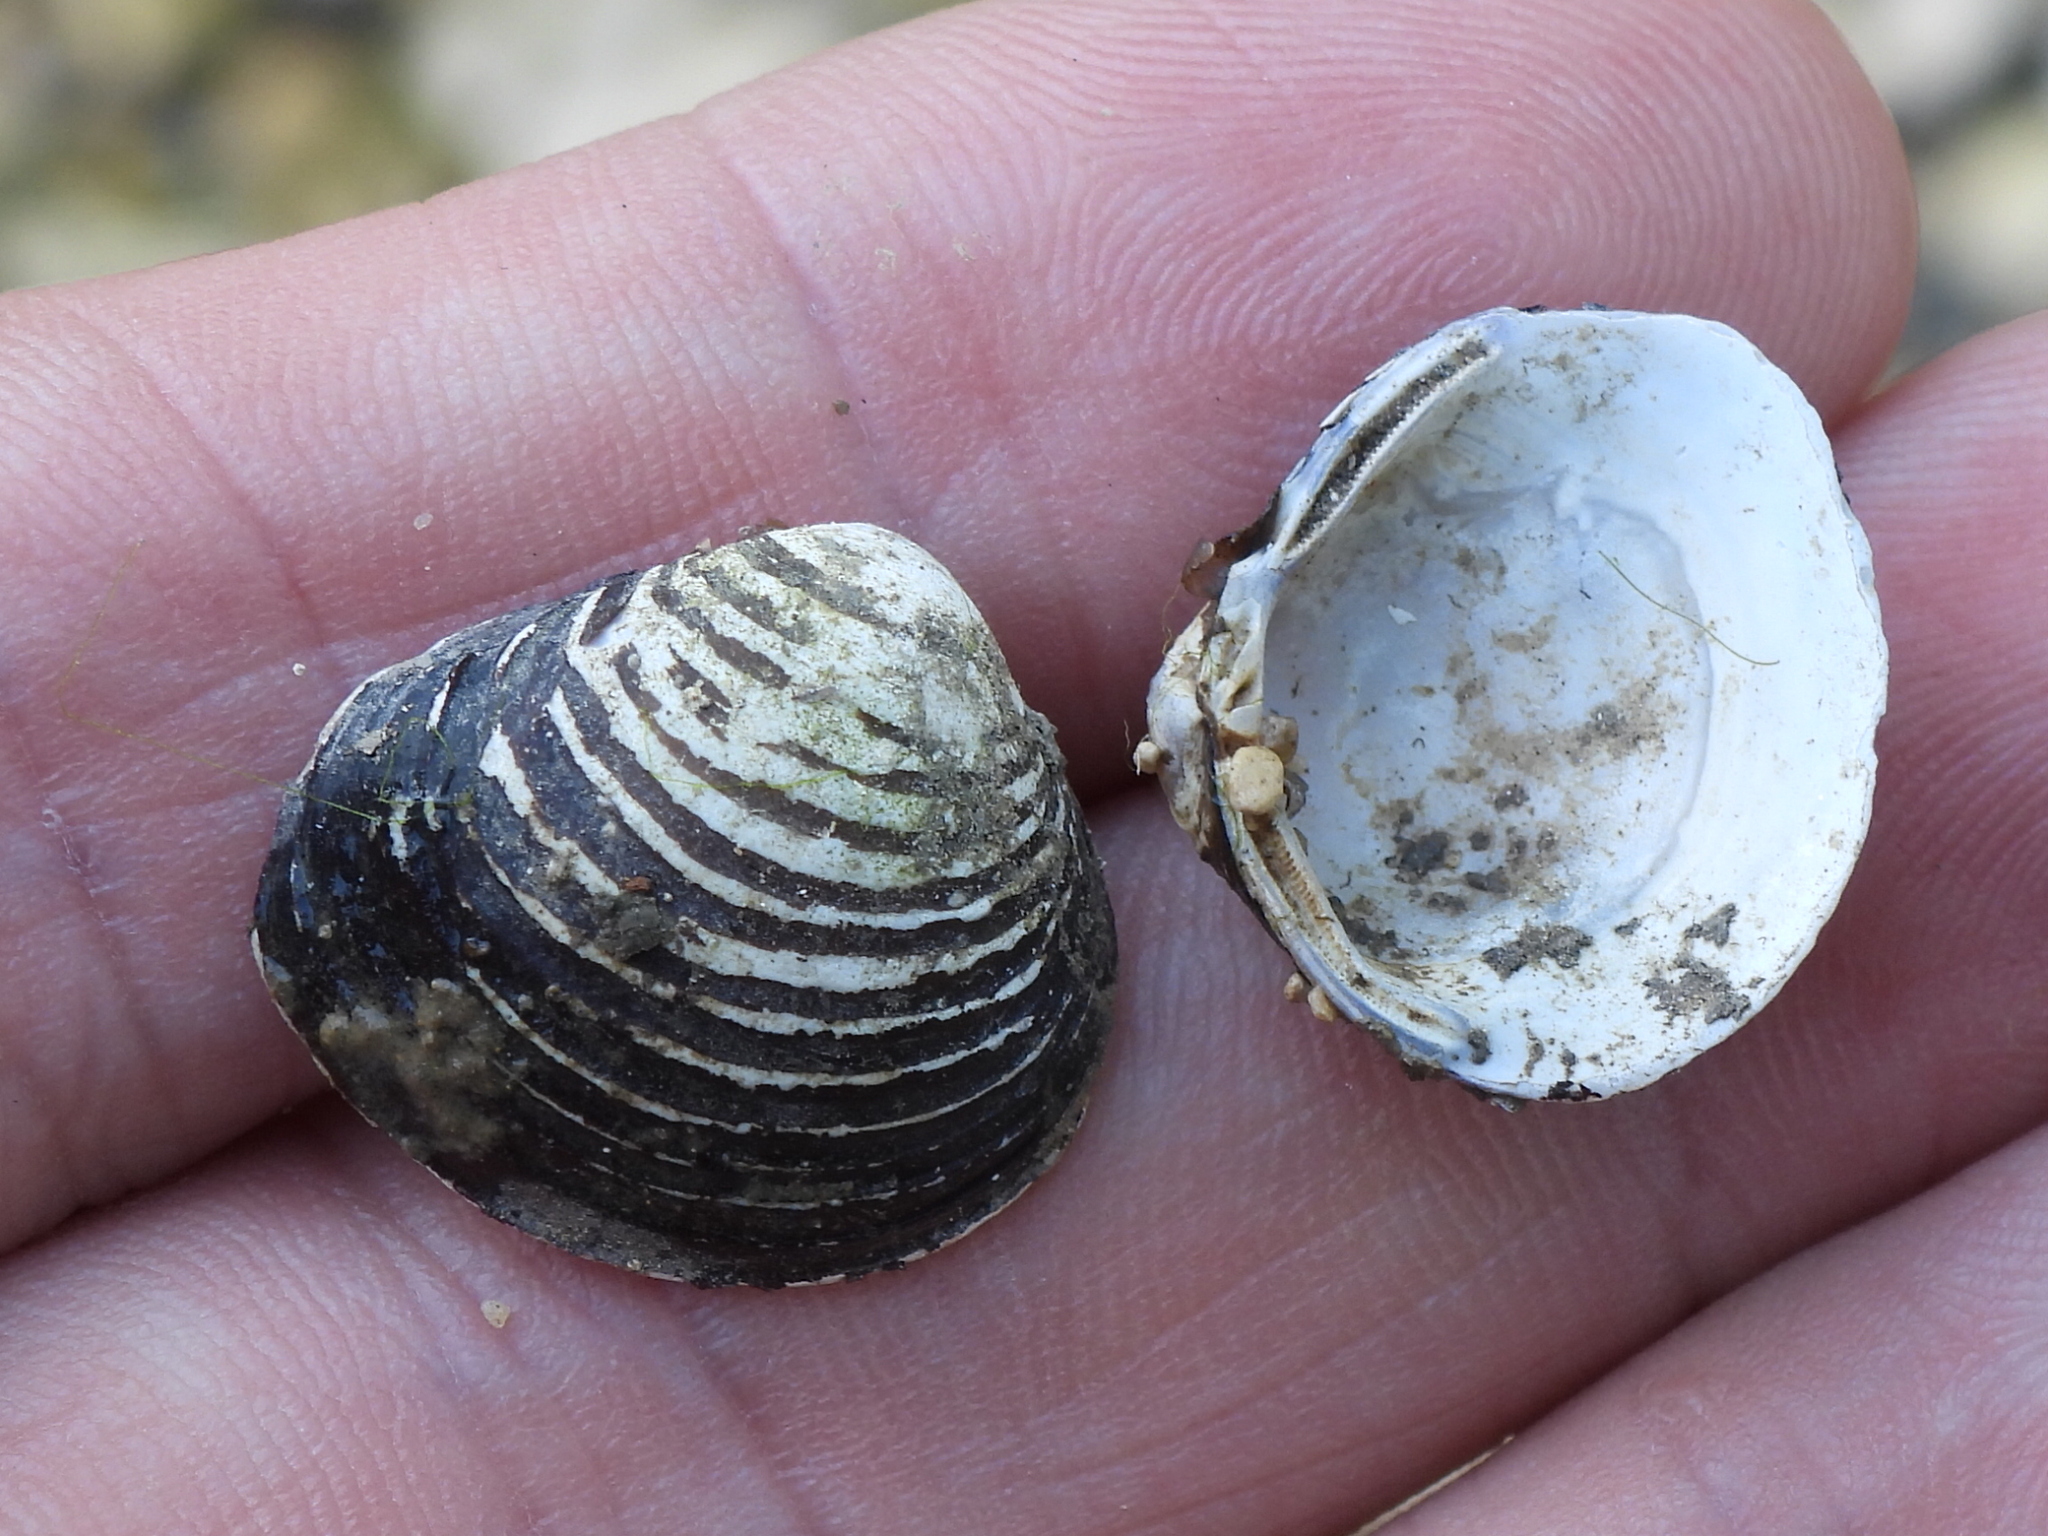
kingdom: Animalia
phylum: Mollusca
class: Bivalvia
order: Venerida
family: Cyrenidae
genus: Corbicula
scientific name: Corbicula fluminea
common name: Asian clam
